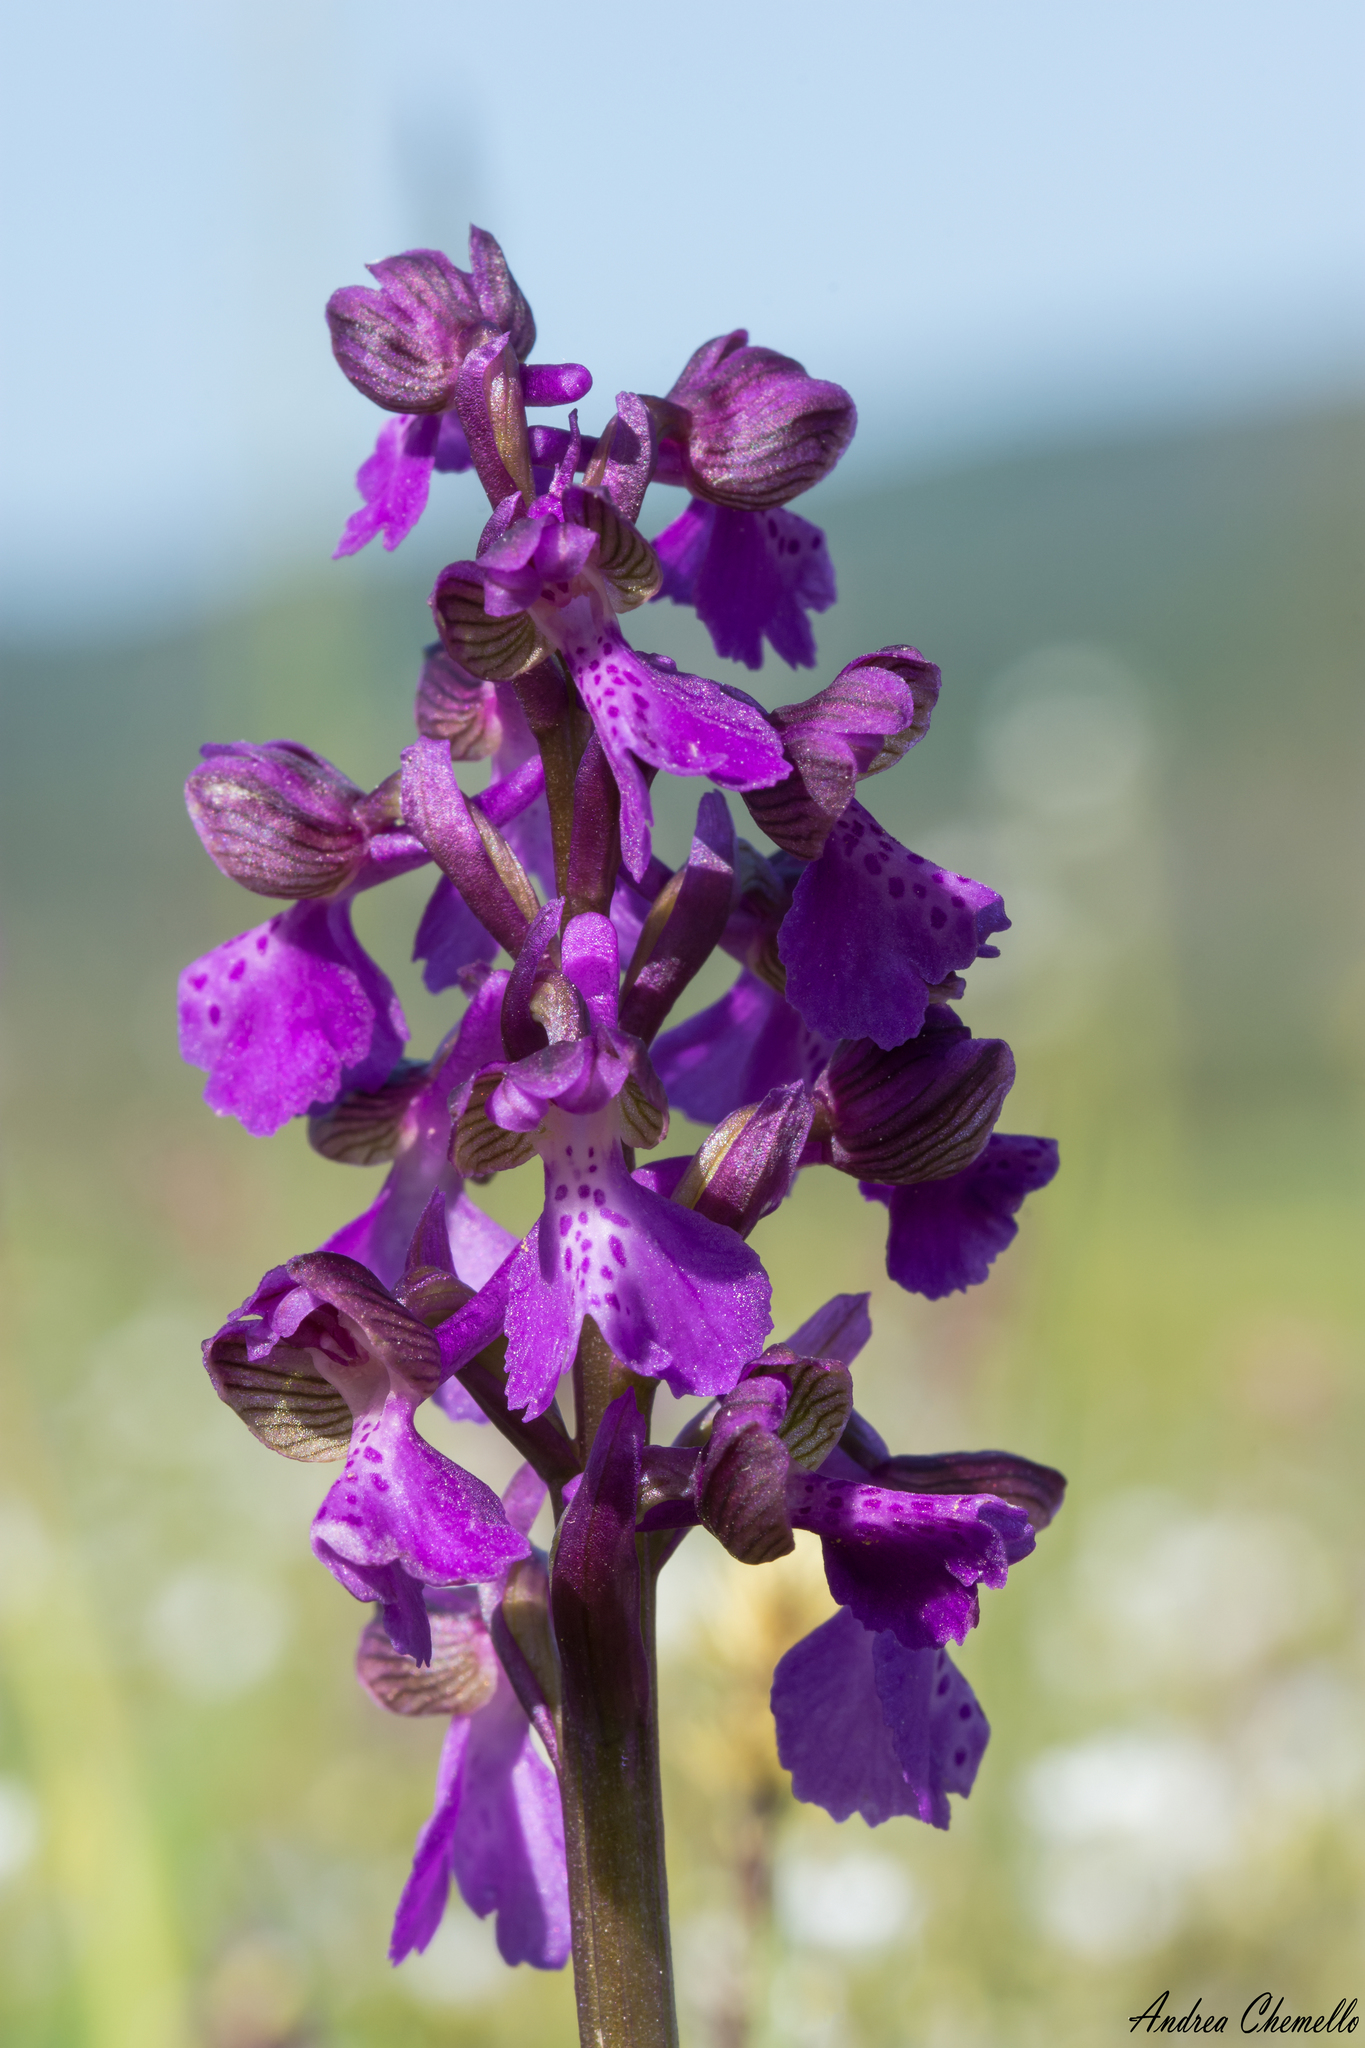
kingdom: Plantae
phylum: Tracheophyta
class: Liliopsida
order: Asparagales
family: Orchidaceae
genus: Anacamptis
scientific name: Anacamptis morio
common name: Green-winged orchid
